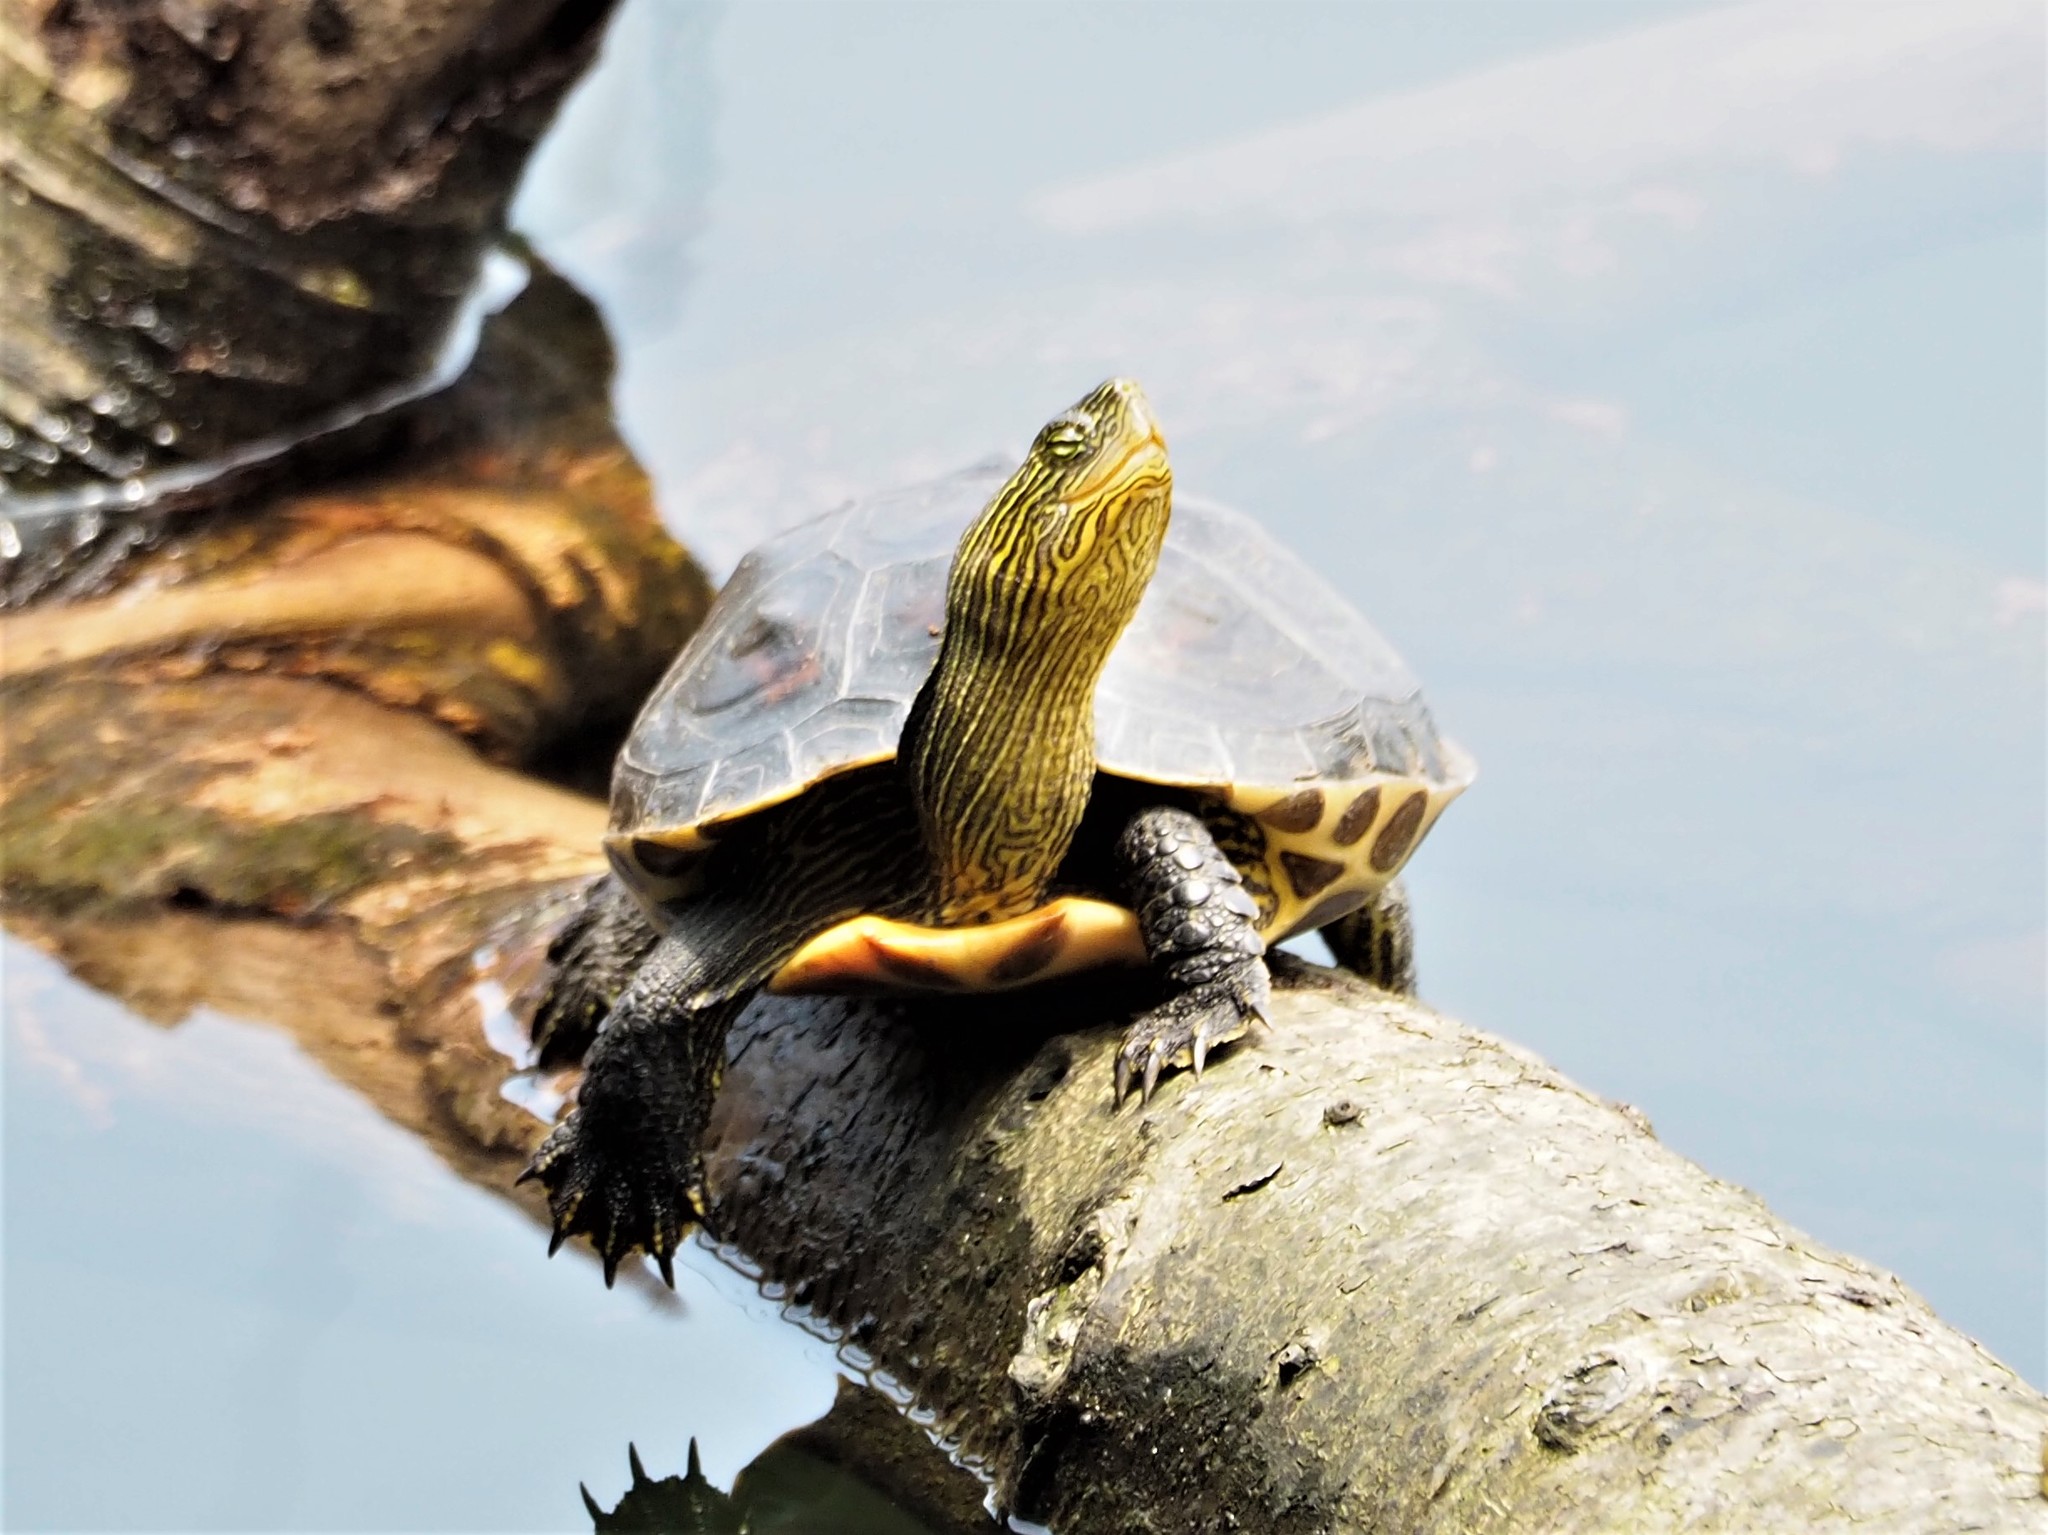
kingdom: Animalia
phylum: Chordata
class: Testudines
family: Geoemydidae
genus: Mauremys
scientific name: Mauremys sinensis
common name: Chinese stripe-necked turtle
